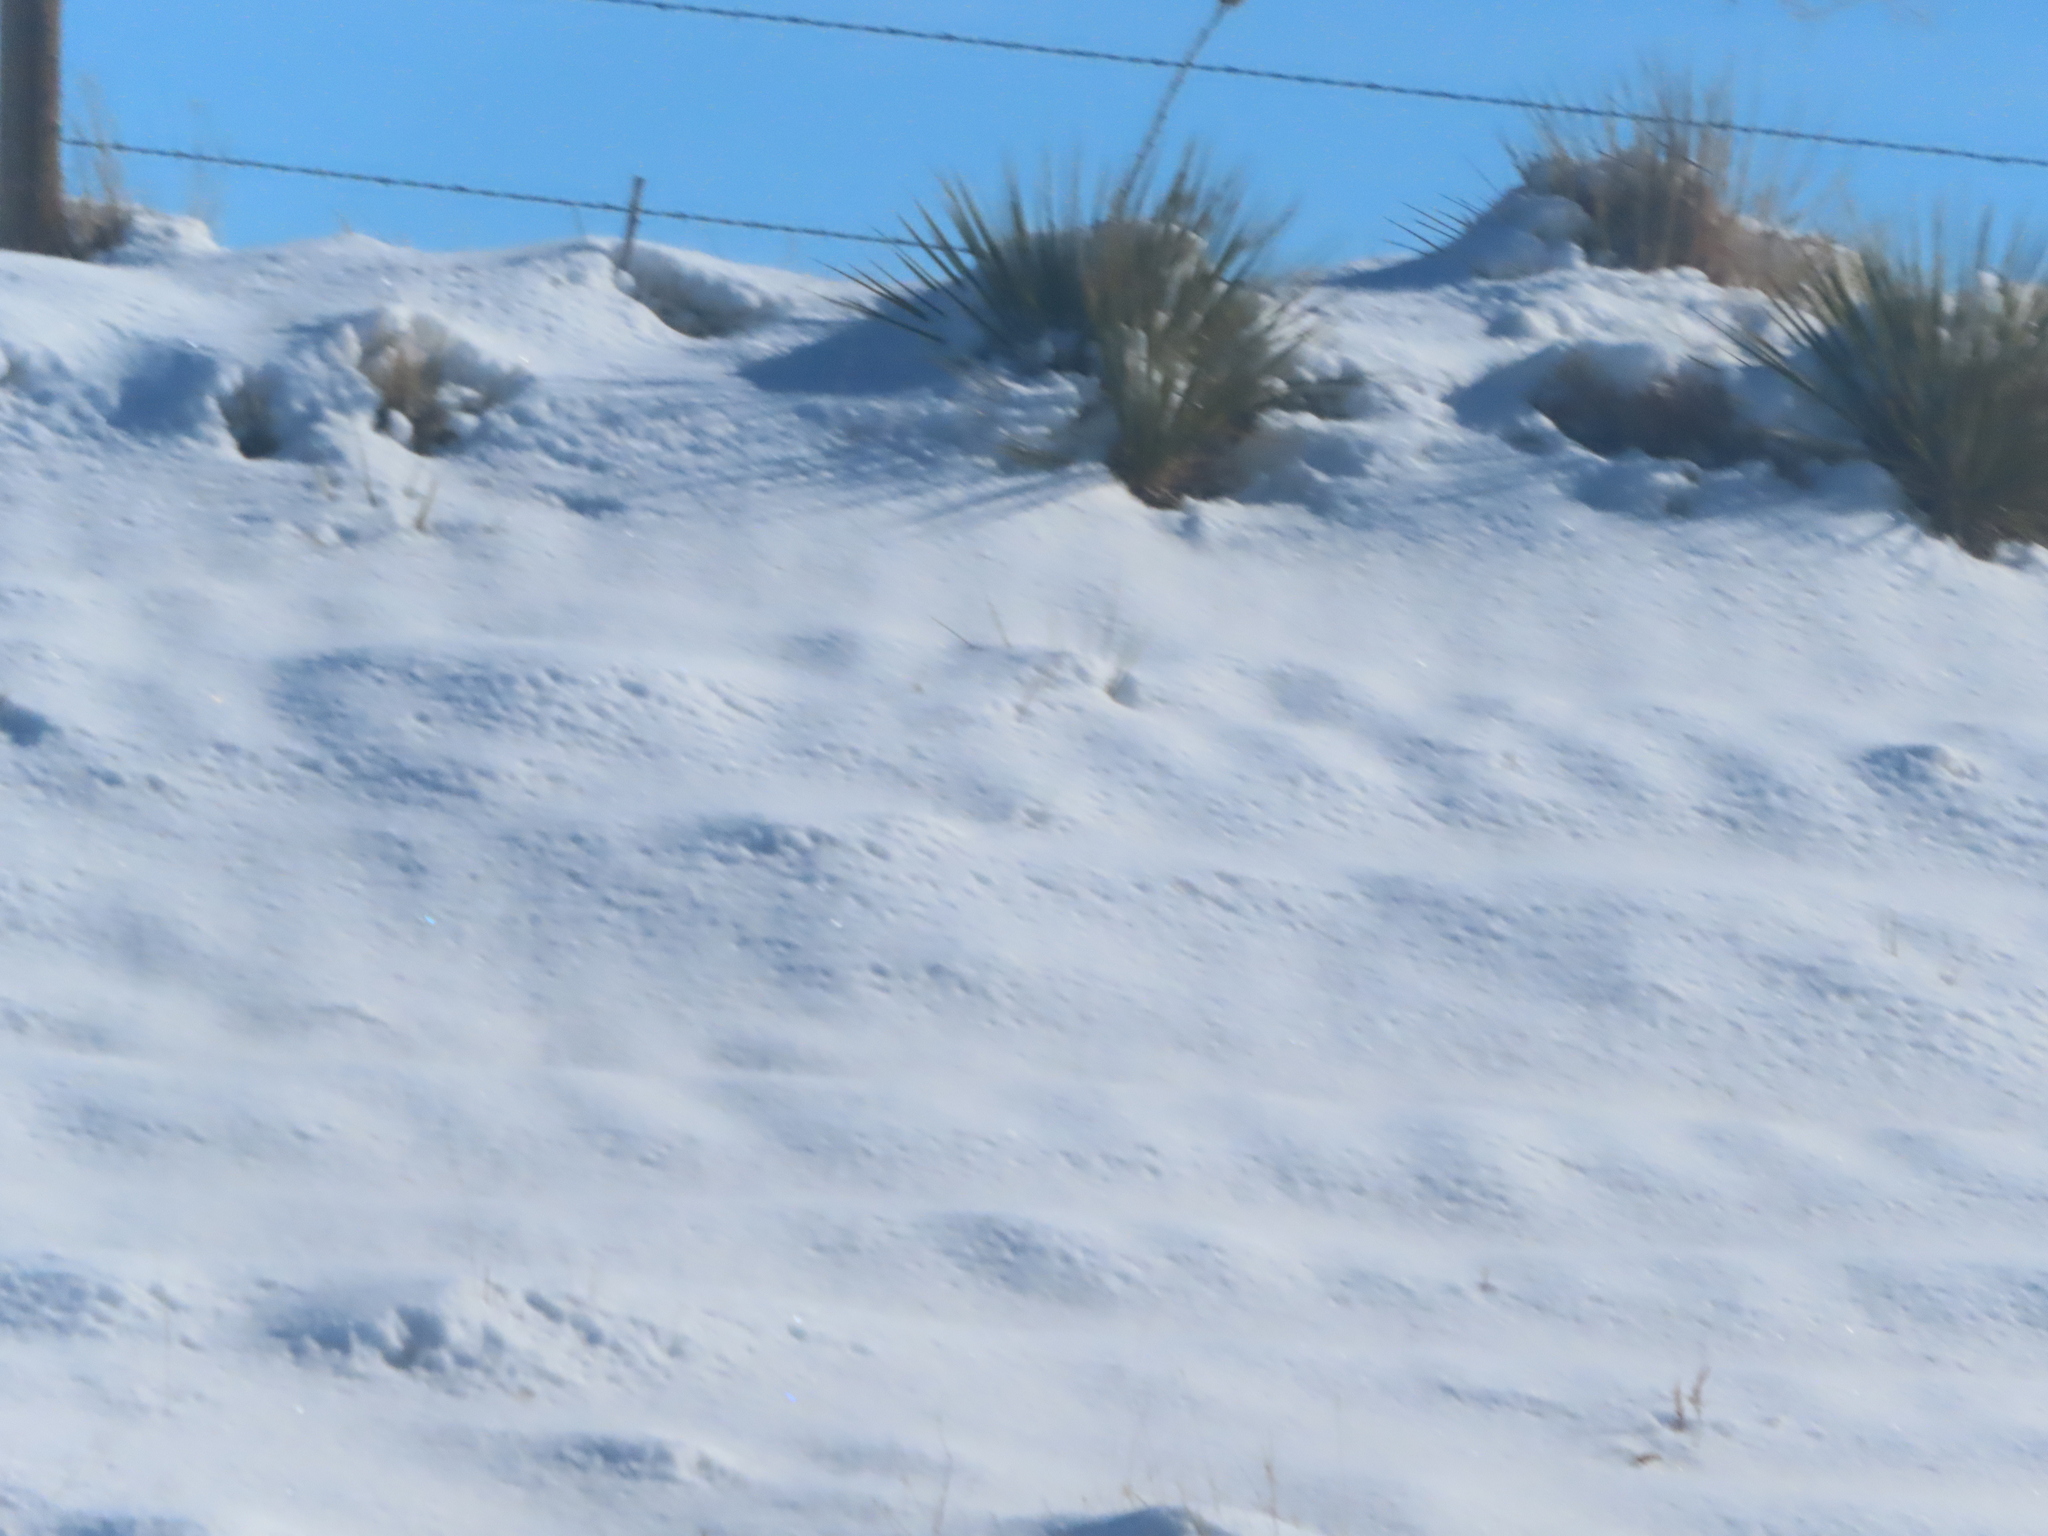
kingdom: Plantae
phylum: Tracheophyta
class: Liliopsida
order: Asparagales
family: Asparagaceae
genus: Yucca
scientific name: Yucca glauca
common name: Great plains yucca
